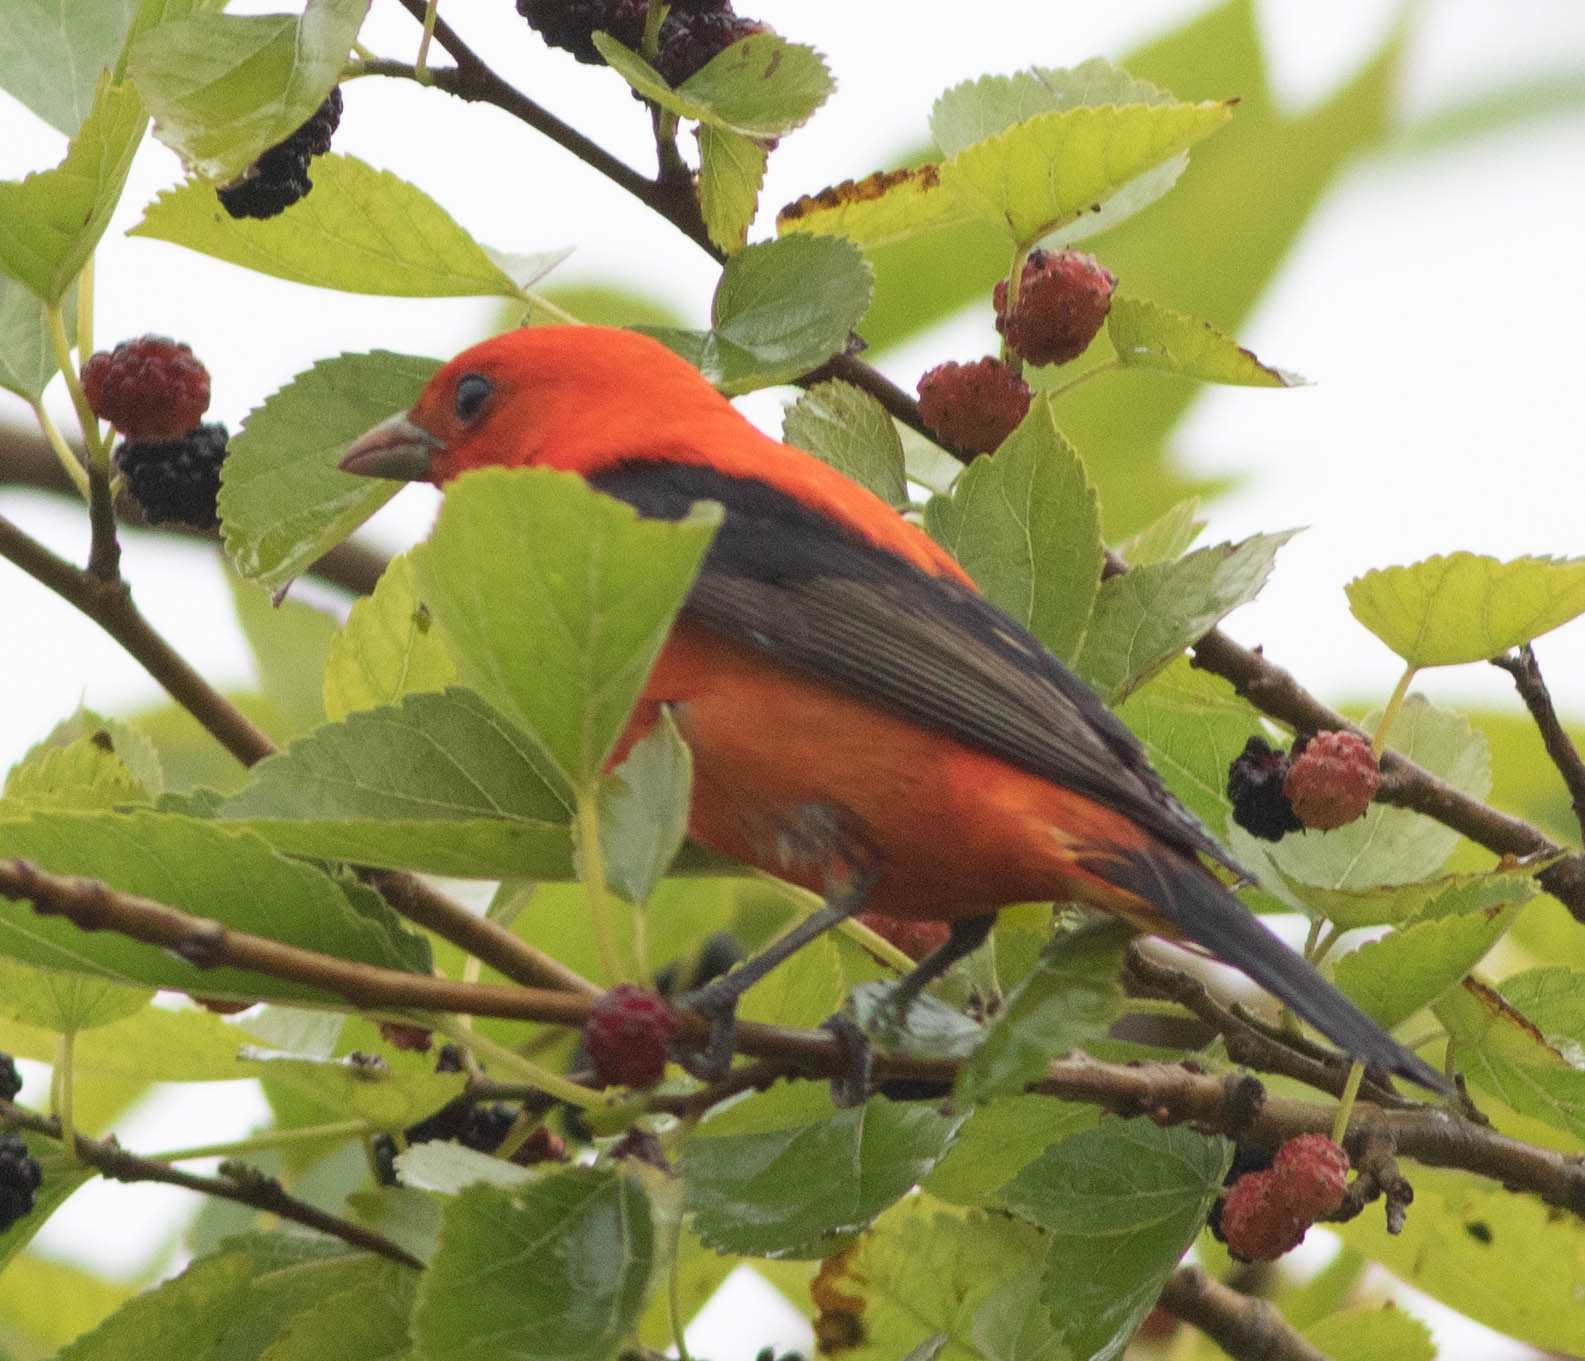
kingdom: Animalia
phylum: Chordata
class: Aves
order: Passeriformes
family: Cardinalidae
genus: Piranga
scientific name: Piranga olivacea
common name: Scarlet tanager
